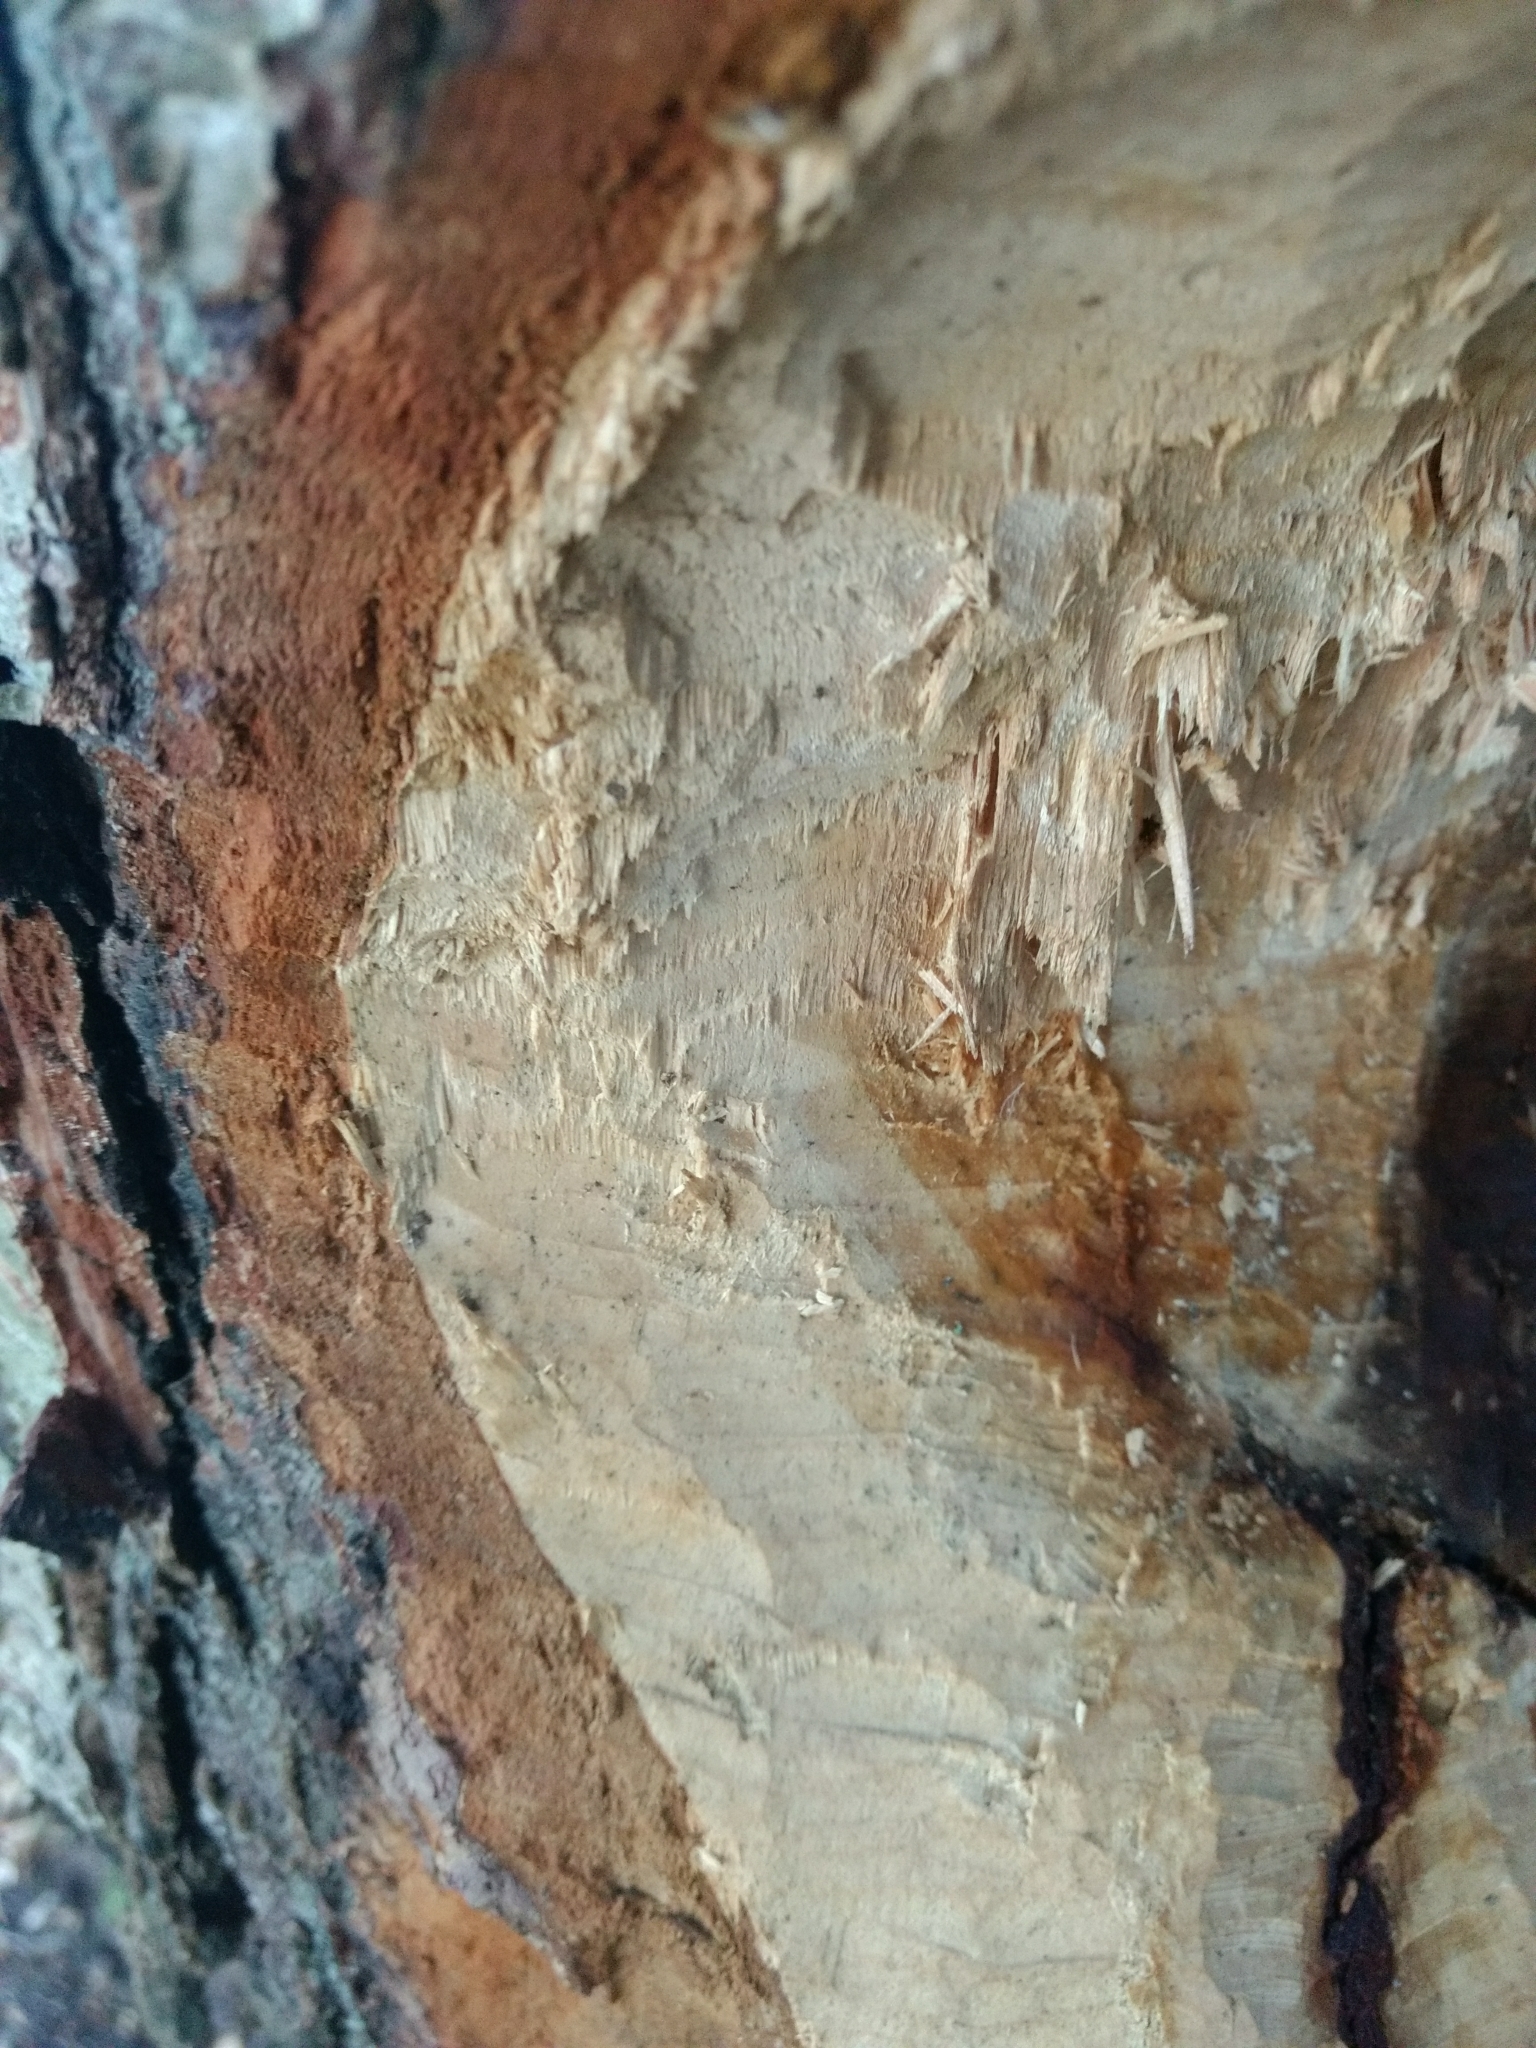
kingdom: Animalia
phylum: Chordata
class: Mammalia
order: Rodentia
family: Castoridae
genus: Castor
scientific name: Castor canadensis
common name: American beaver
